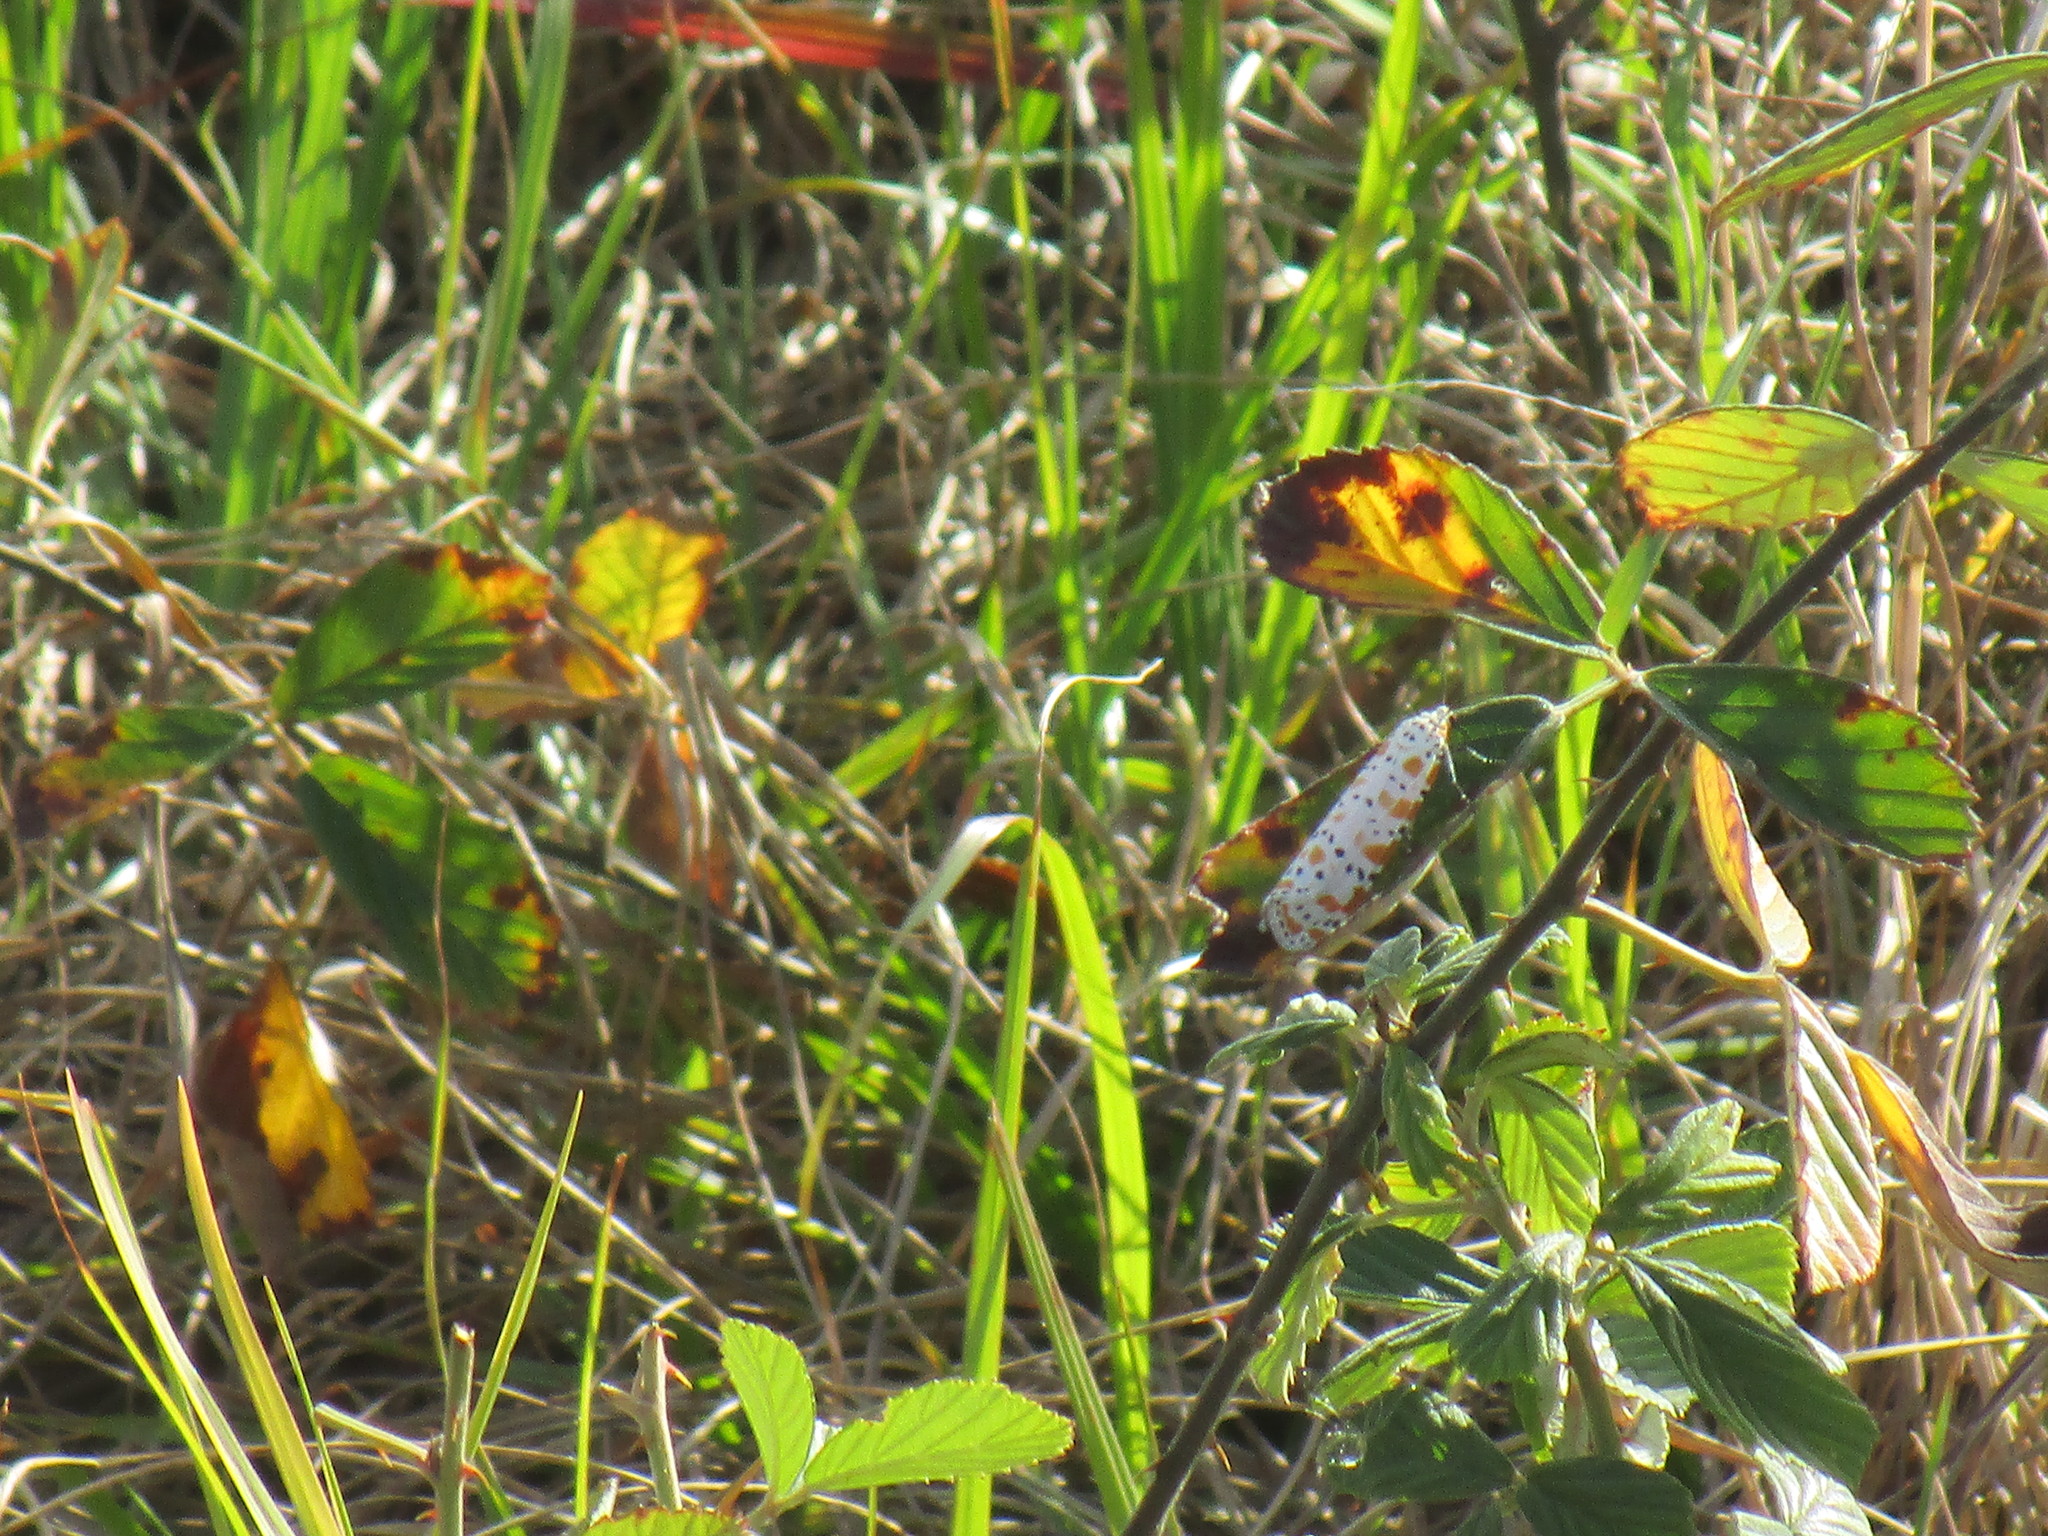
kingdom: Animalia
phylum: Arthropoda
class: Insecta
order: Lepidoptera
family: Erebidae
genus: Utetheisa
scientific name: Utetheisa ornatrix
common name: Beautiful utetheisa
